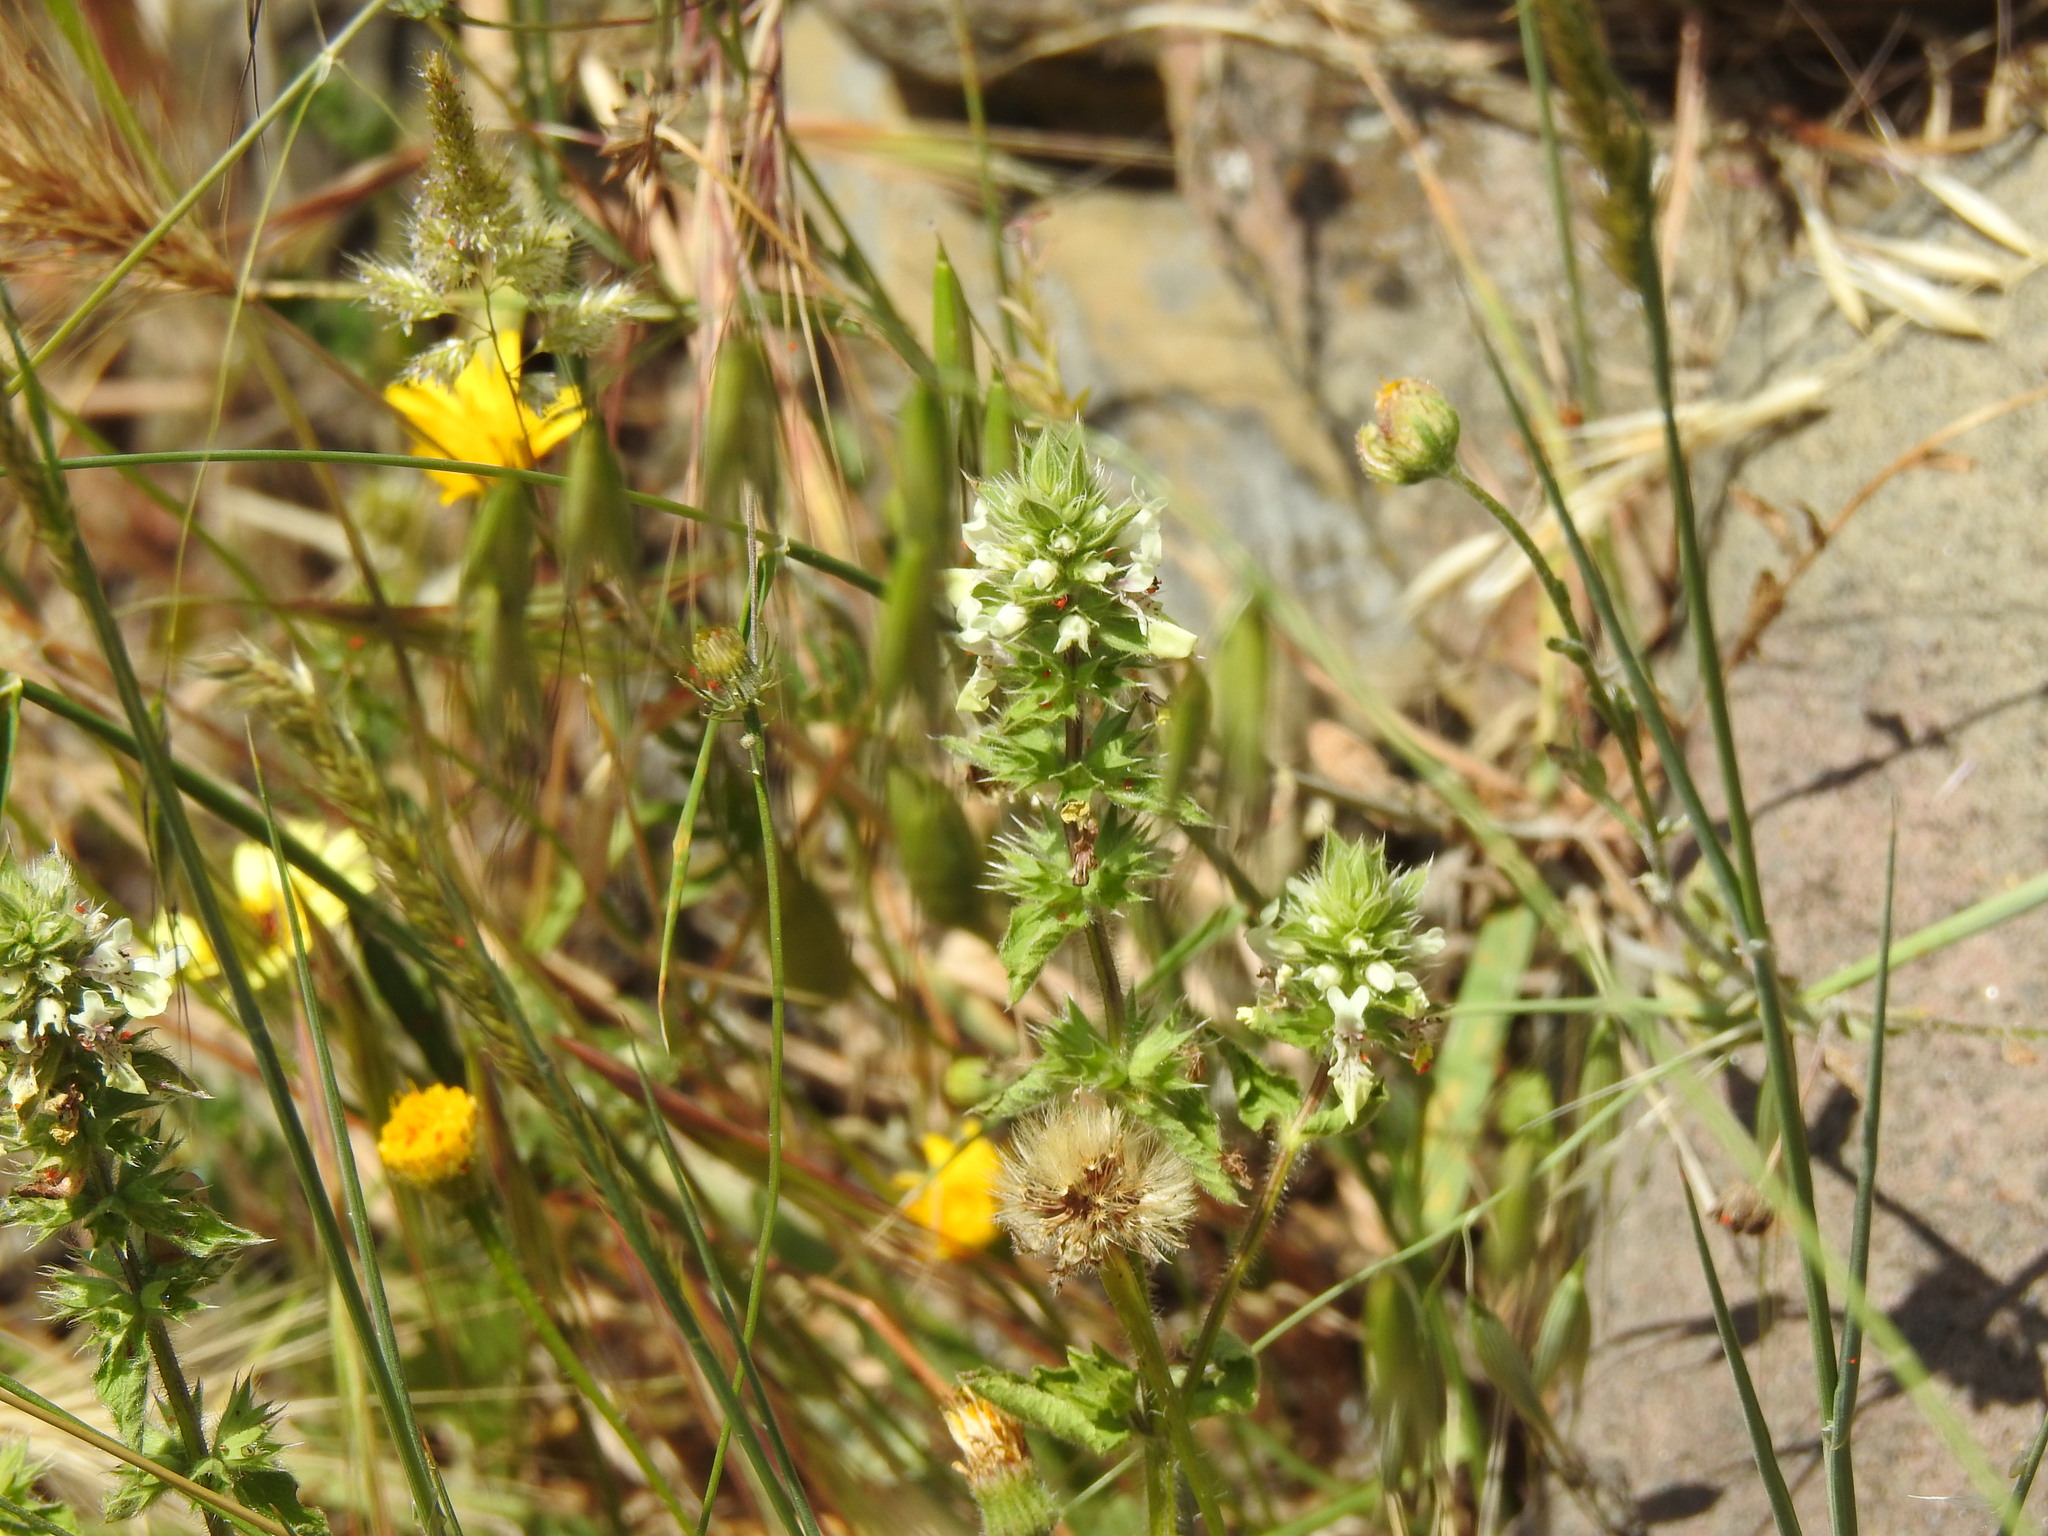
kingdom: Plantae
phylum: Tracheophyta
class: Magnoliopsida
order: Lamiales
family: Lamiaceae
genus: Stachys
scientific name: Stachys ocymastrum
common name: Italian hedgenettle
